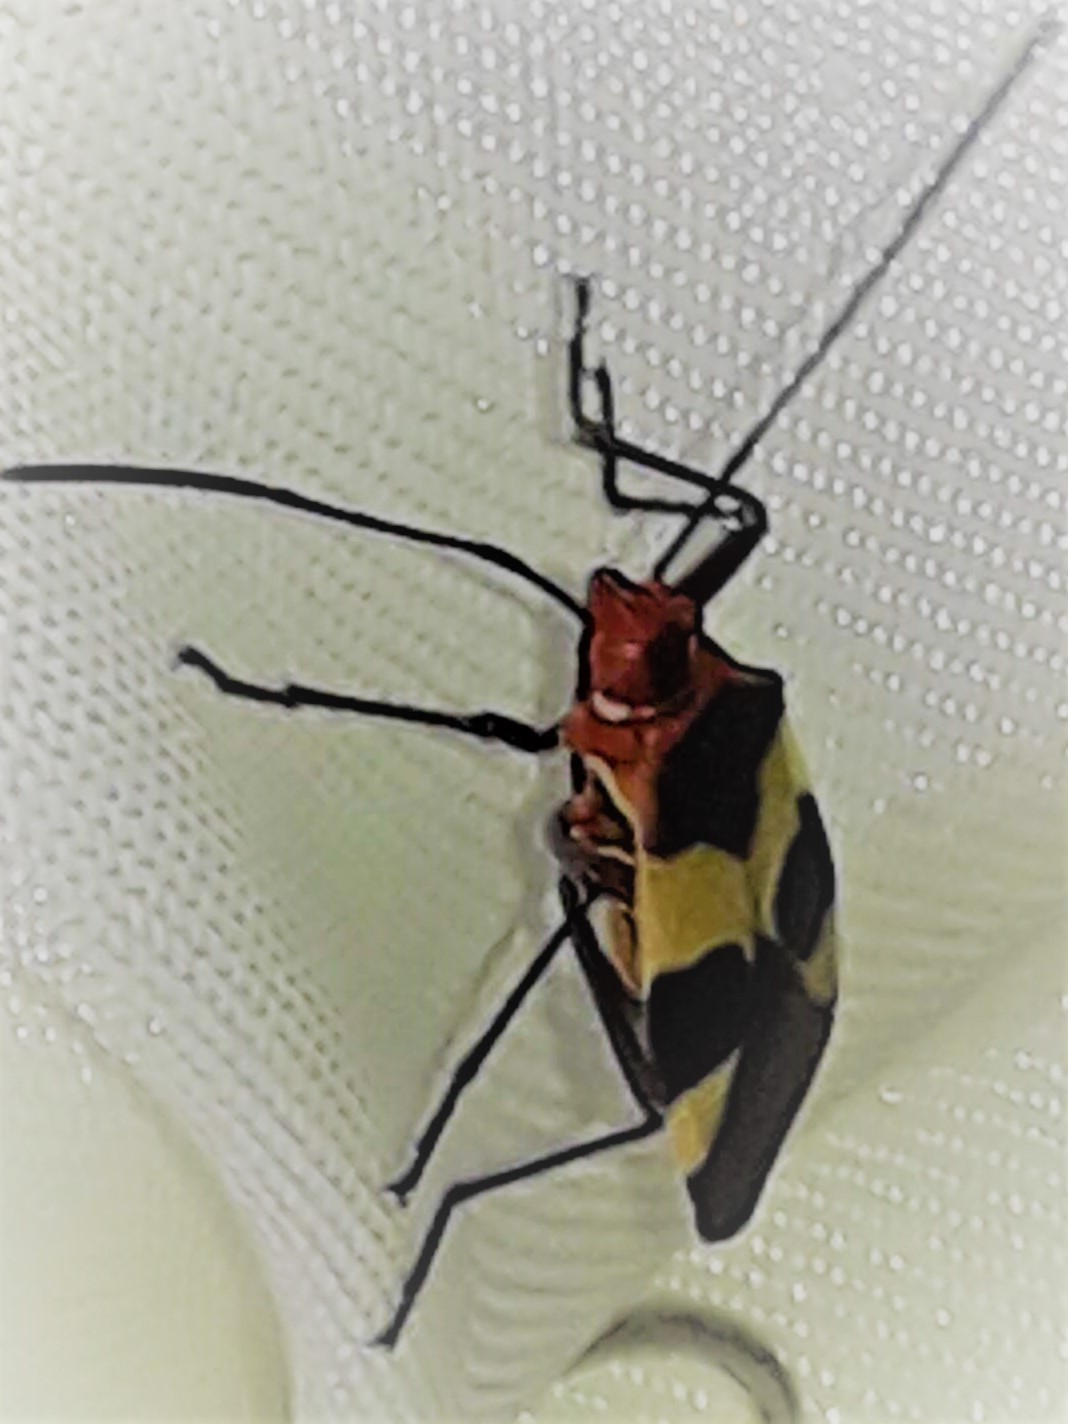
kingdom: Animalia
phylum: Arthropoda
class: Insecta
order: Hemiptera
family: Pyrrhocoridae
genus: Dysdercus
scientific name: Dysdercus lunulatus
